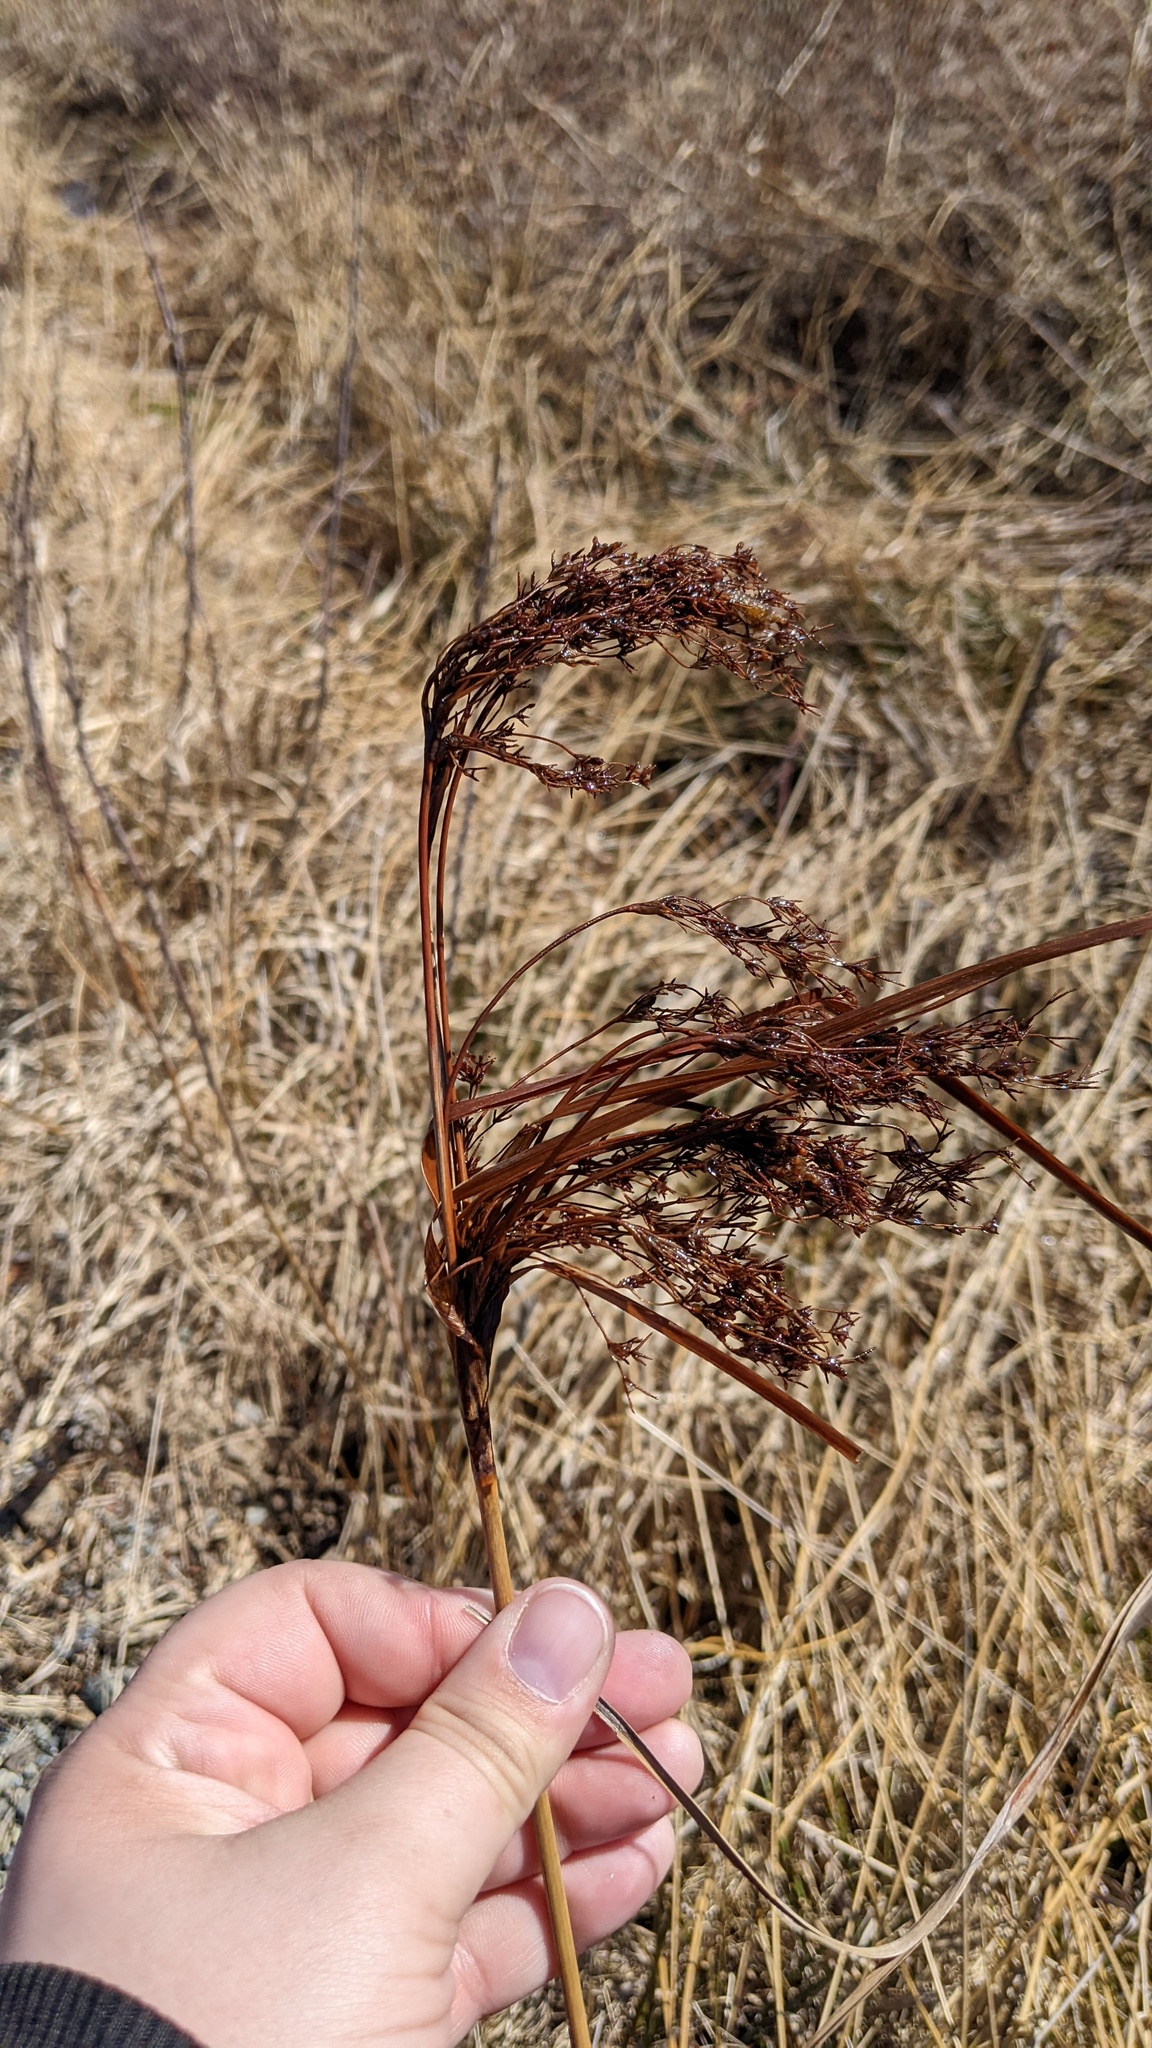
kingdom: Plantae
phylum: Tracheophyta
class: Liliopsida
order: Poales
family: Cyperaceae
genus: Scirpus
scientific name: Scirpus cyperinus
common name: Black-sheathed bulrush
